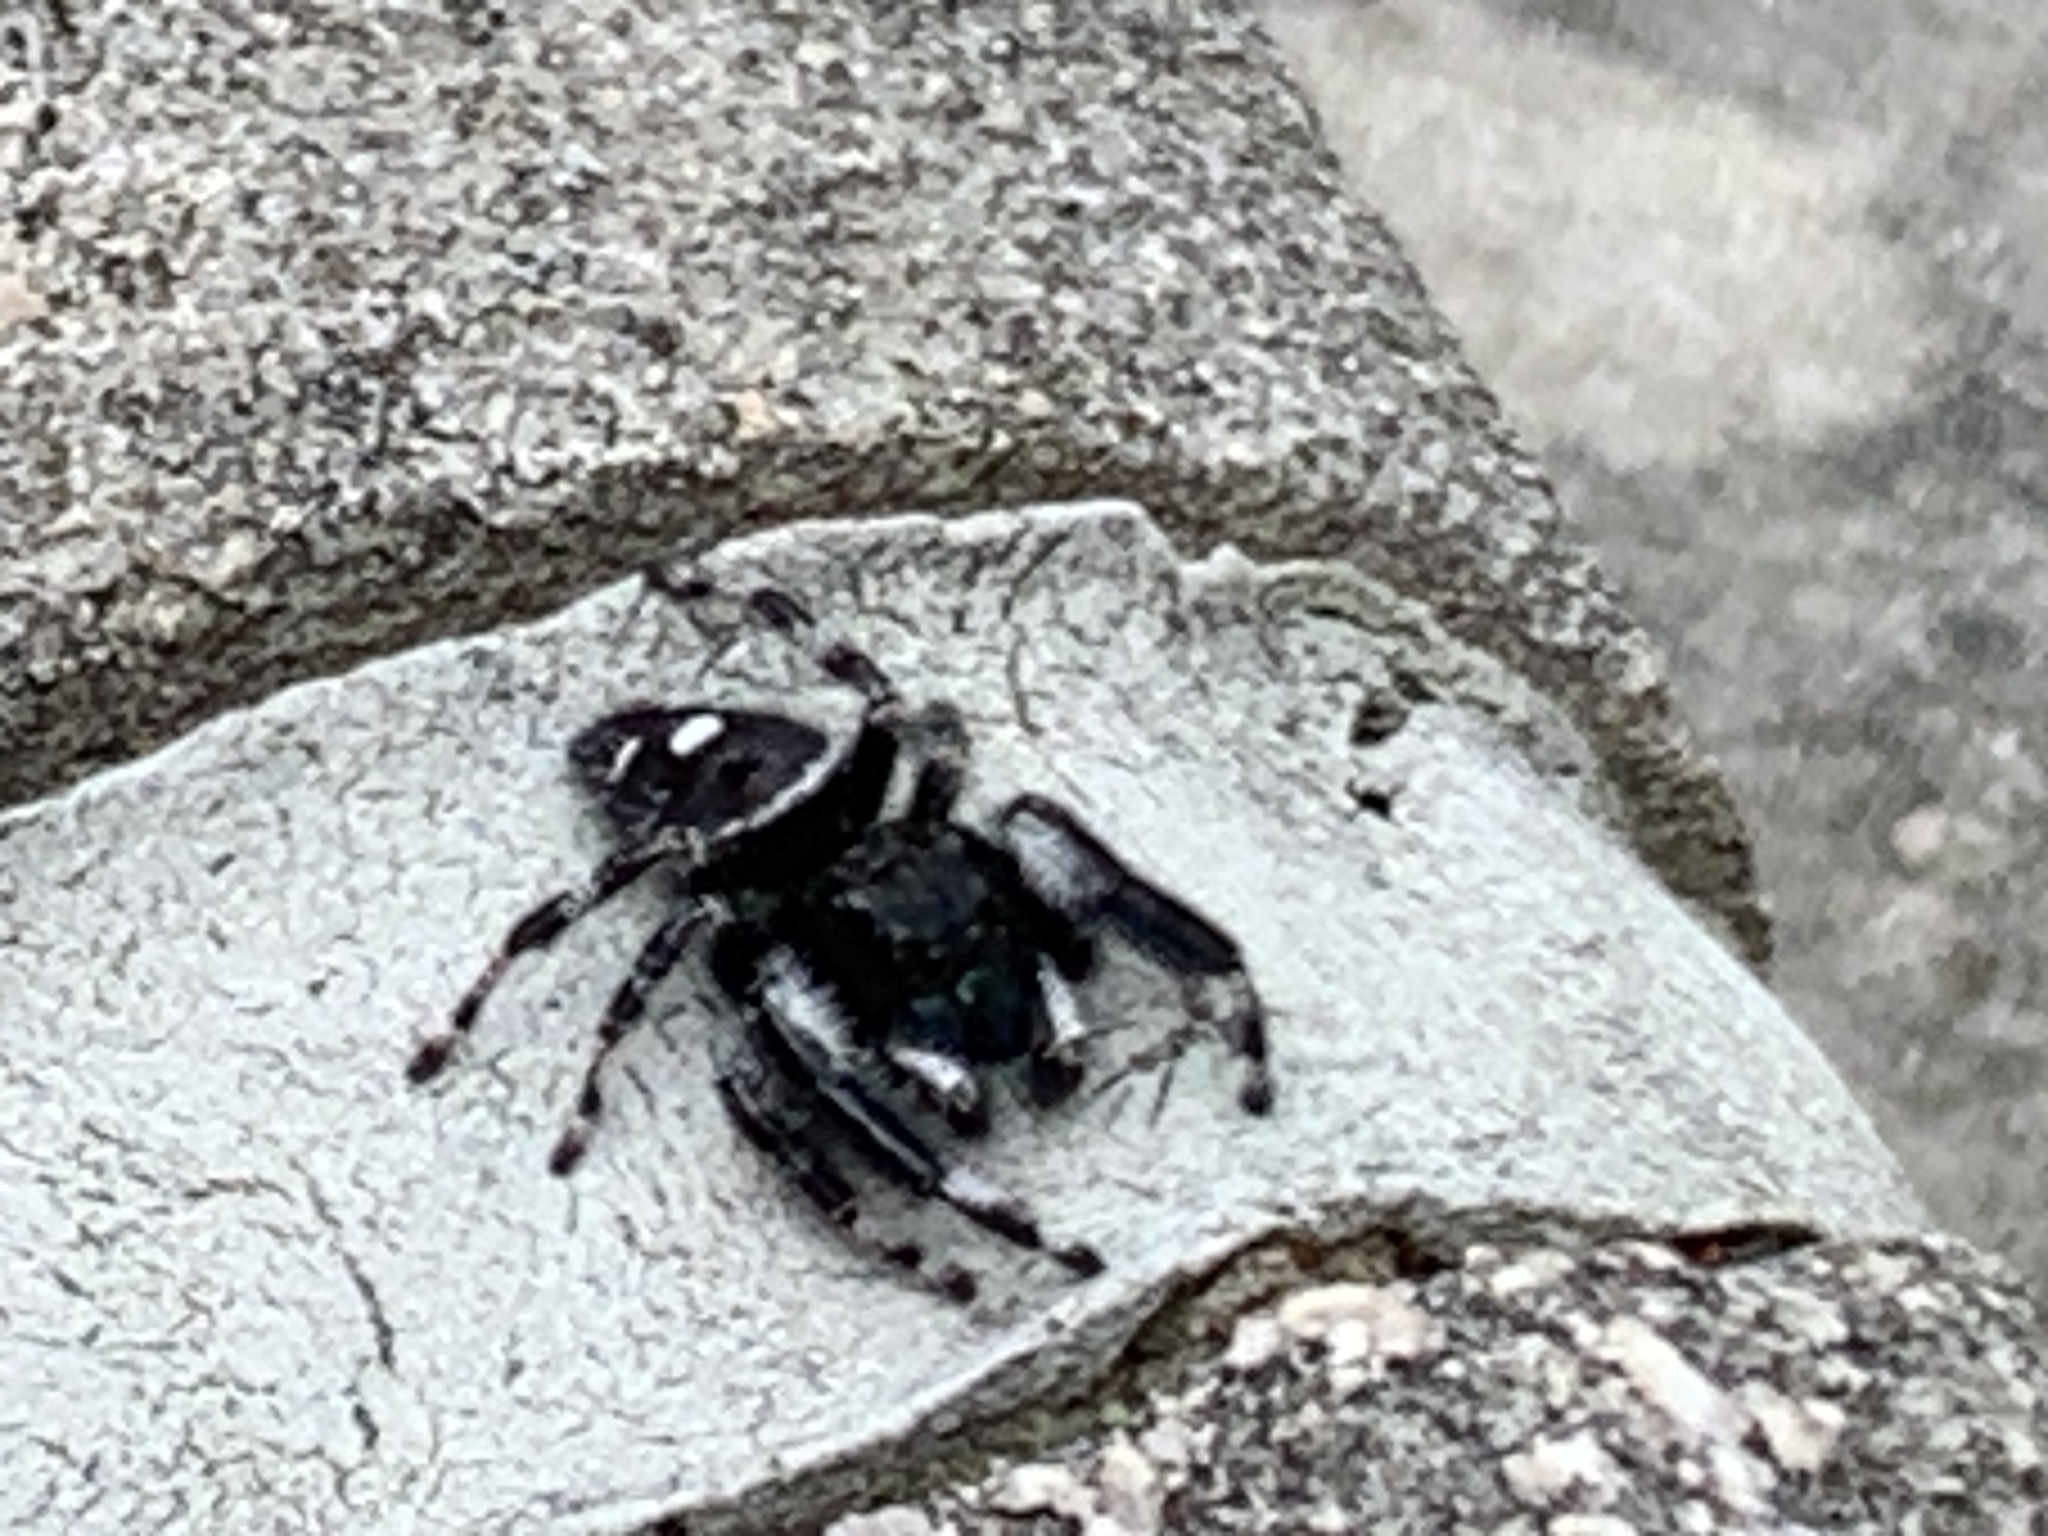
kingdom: Animalia
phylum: Arthropoda
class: Arachnida
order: Araneae
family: Salticidae
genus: Phidippus
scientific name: Phidippus audax
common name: Bold jumper
